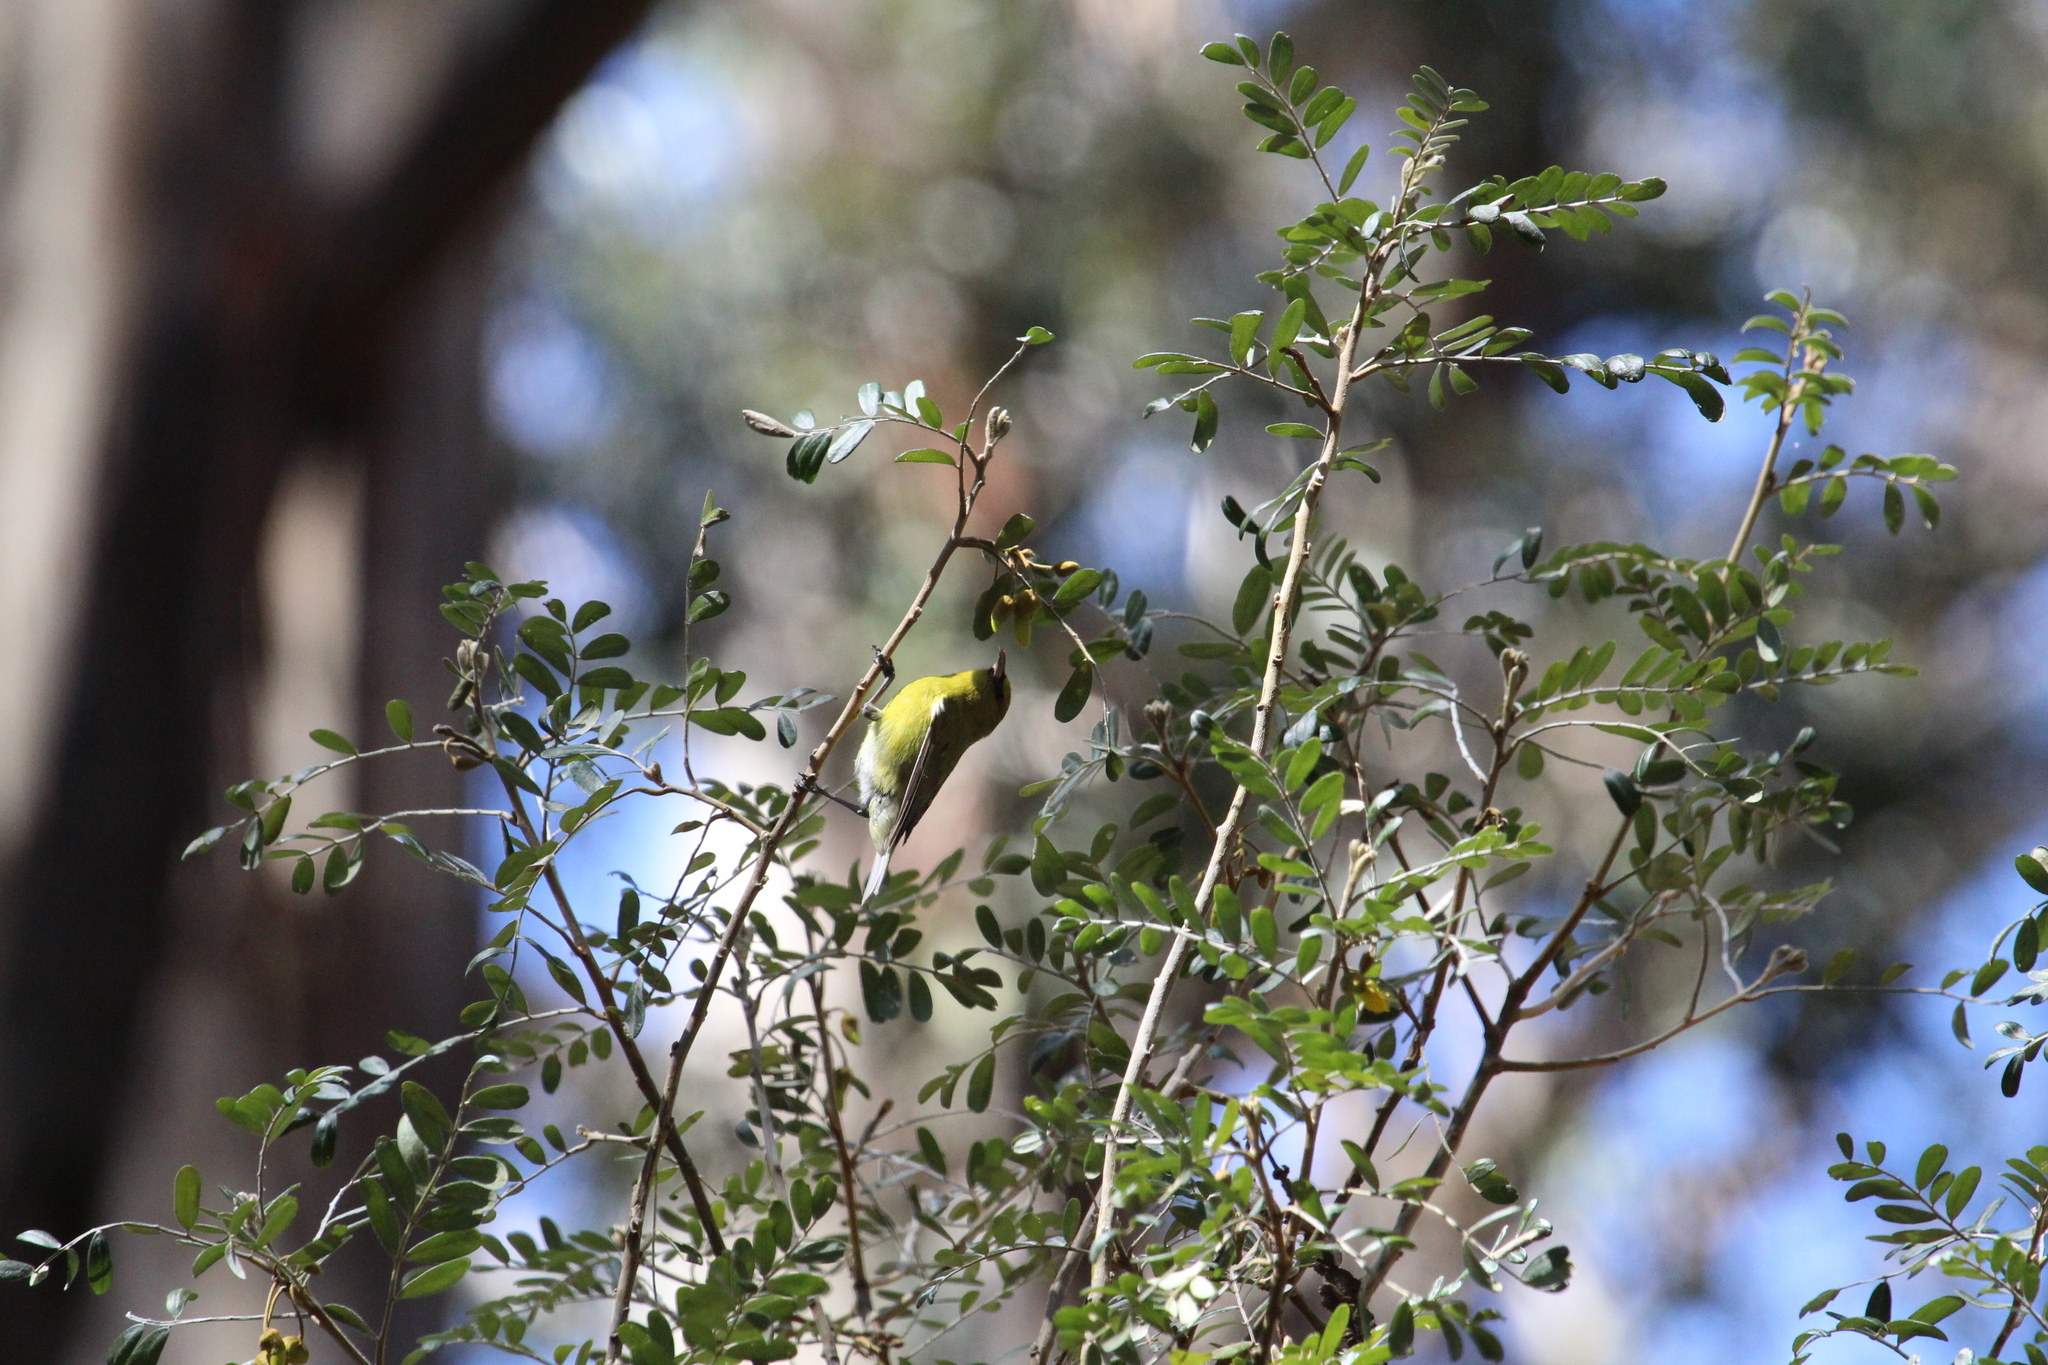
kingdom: Animalia
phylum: Chordata
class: Aves
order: Passeriformes
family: Fringillidae
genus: Chlorodrepanis
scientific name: Chlorodrepanis virens
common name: Hawaii amakihi
